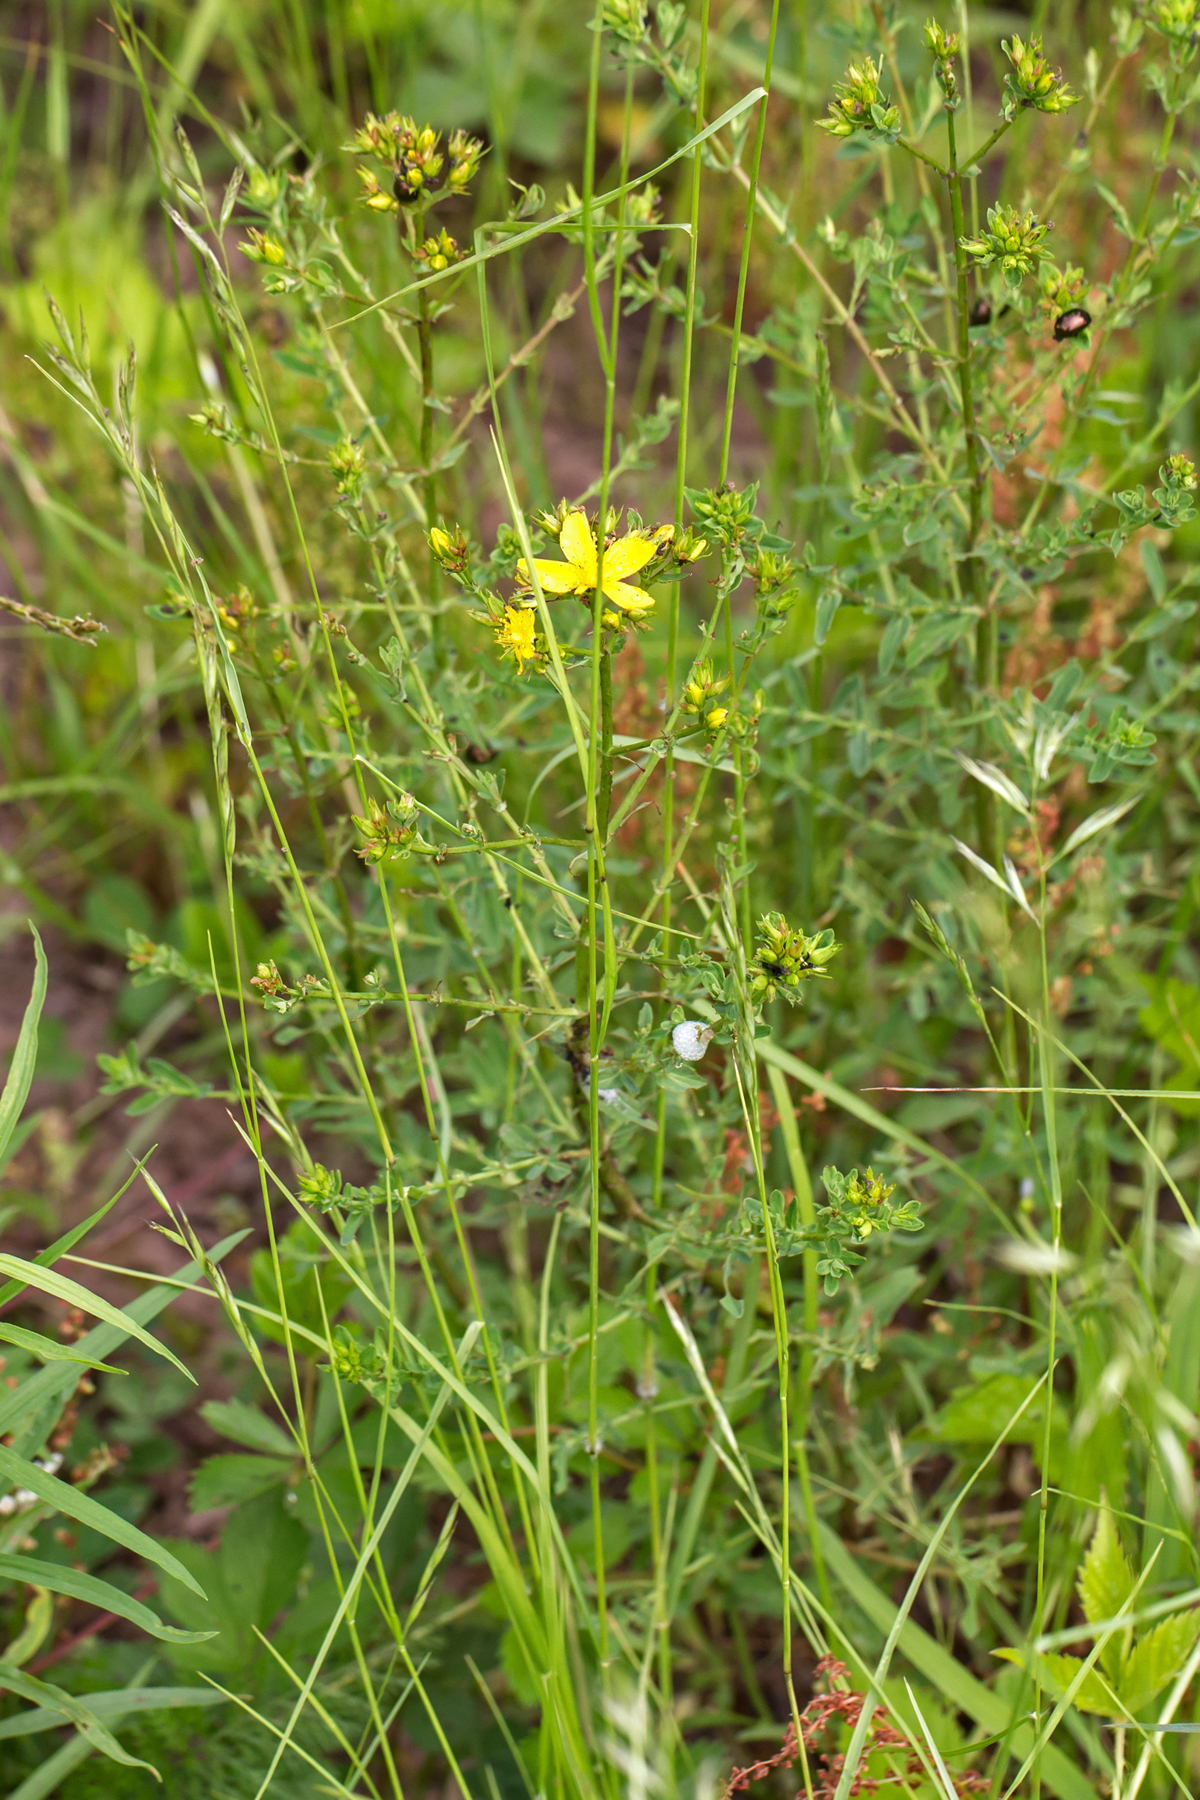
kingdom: Plantae
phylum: Tracheophyta
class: Magnoliopsida
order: Malpighiales
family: Hypericaceae
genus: Hypericum
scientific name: Hypericum perforatum
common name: Common st. johnswort
